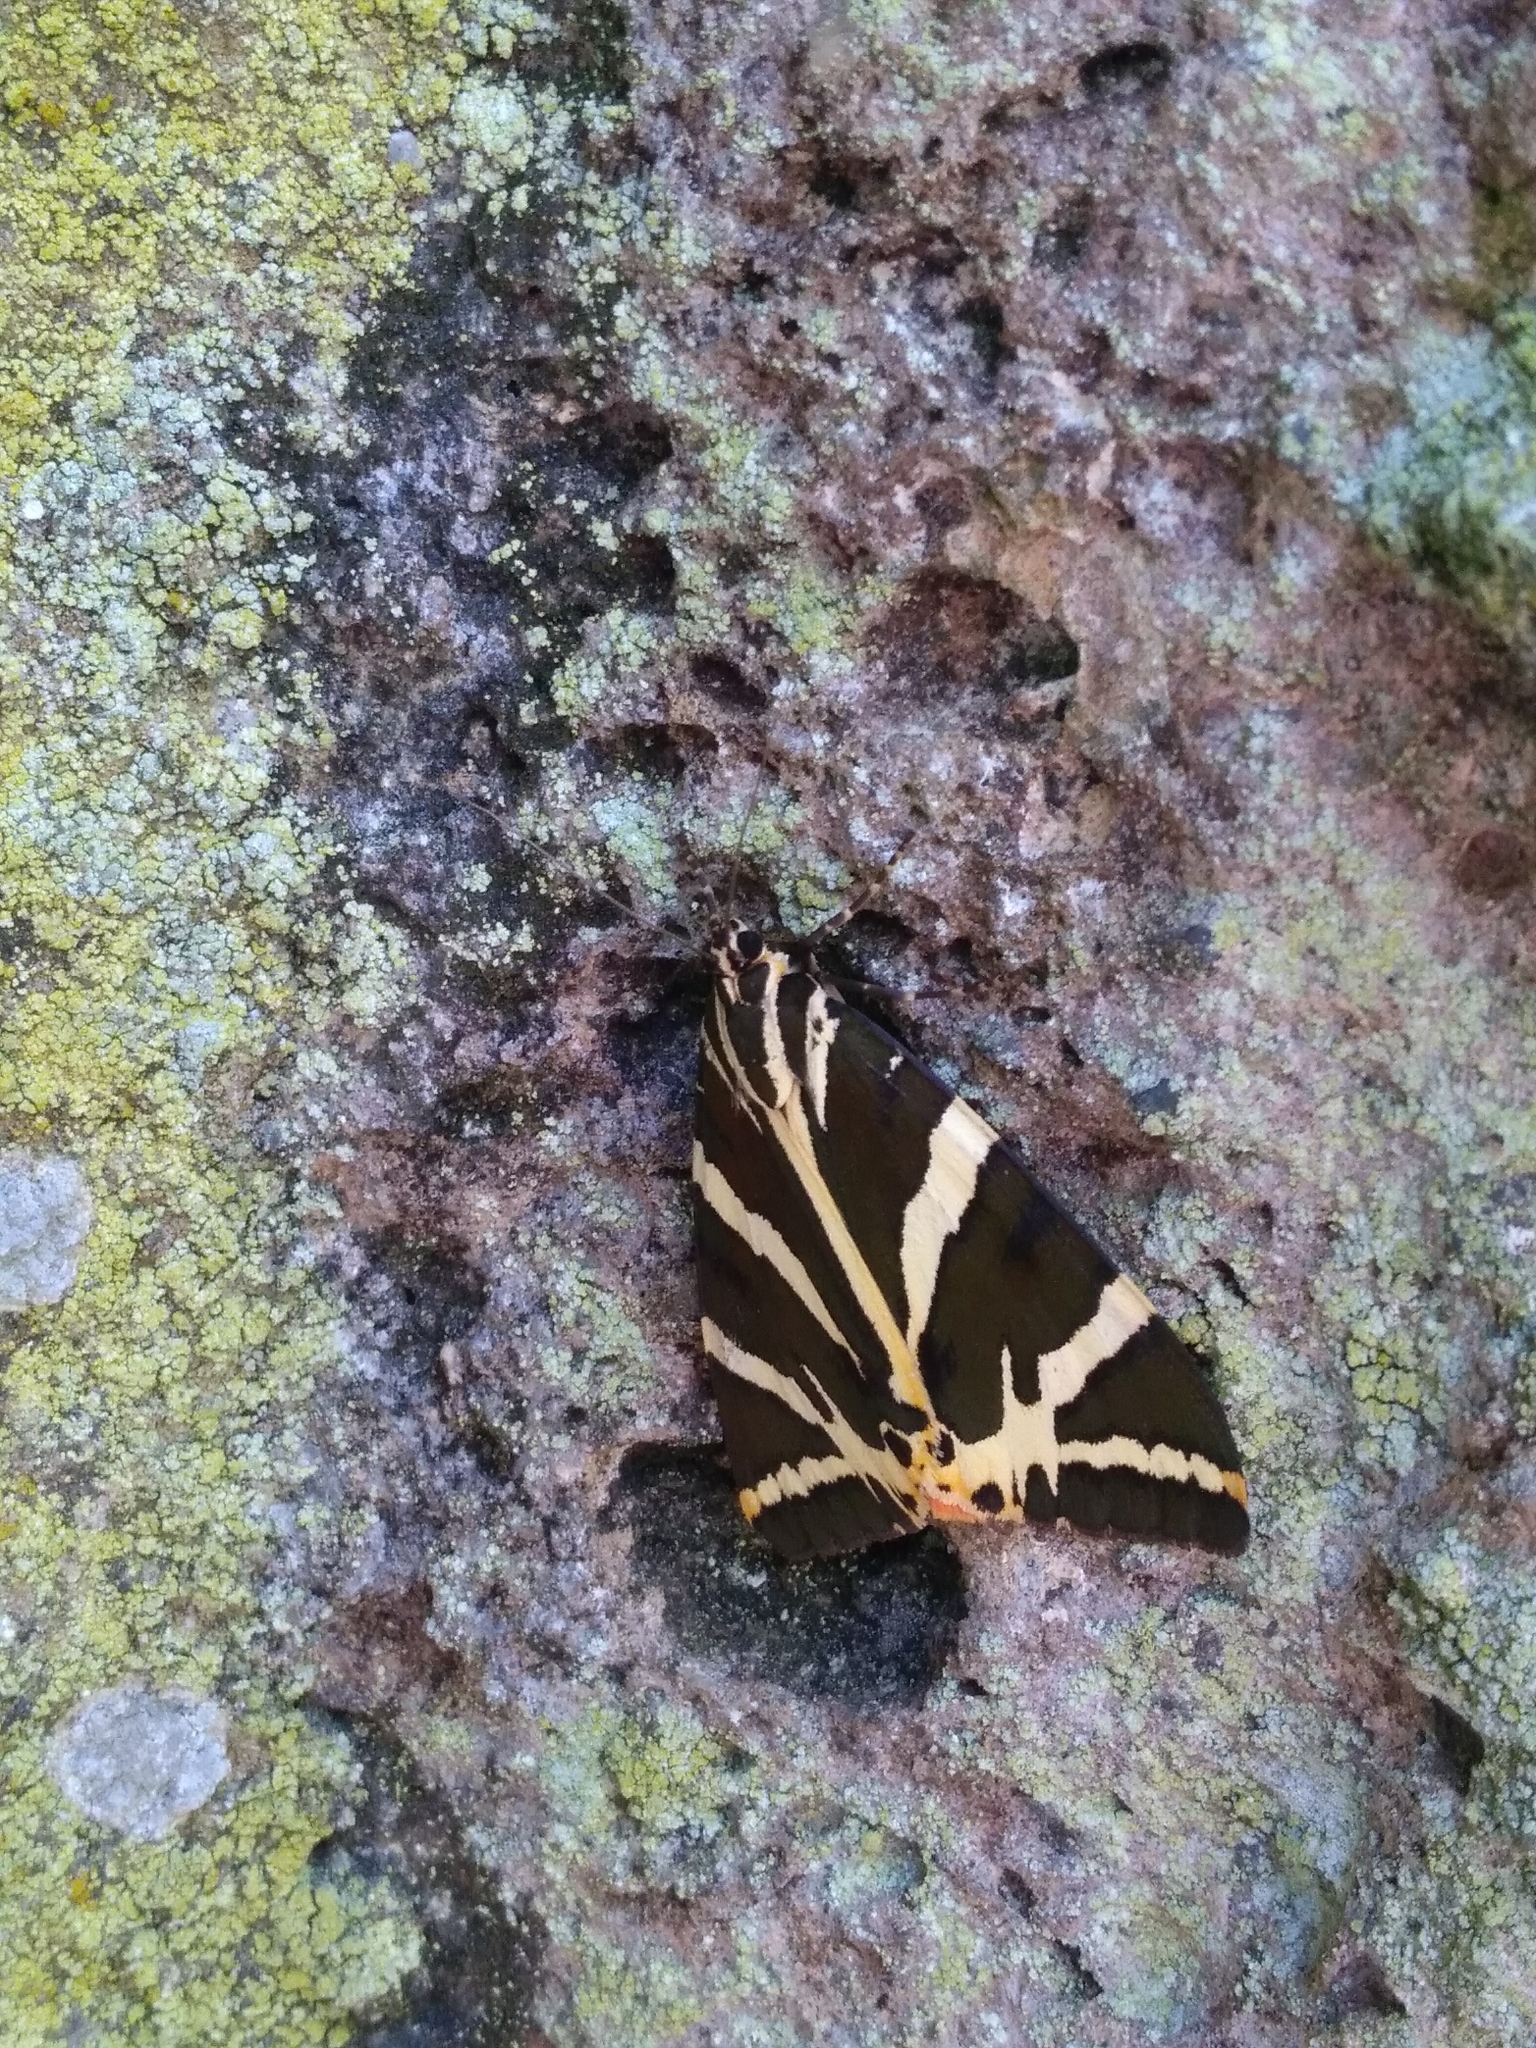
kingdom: Animalia
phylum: Arthropoda
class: Insecta
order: Lepidoptera
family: Erebidae
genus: Euplagia
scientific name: Euplagia quadripunctaria
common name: Jersey tiger
